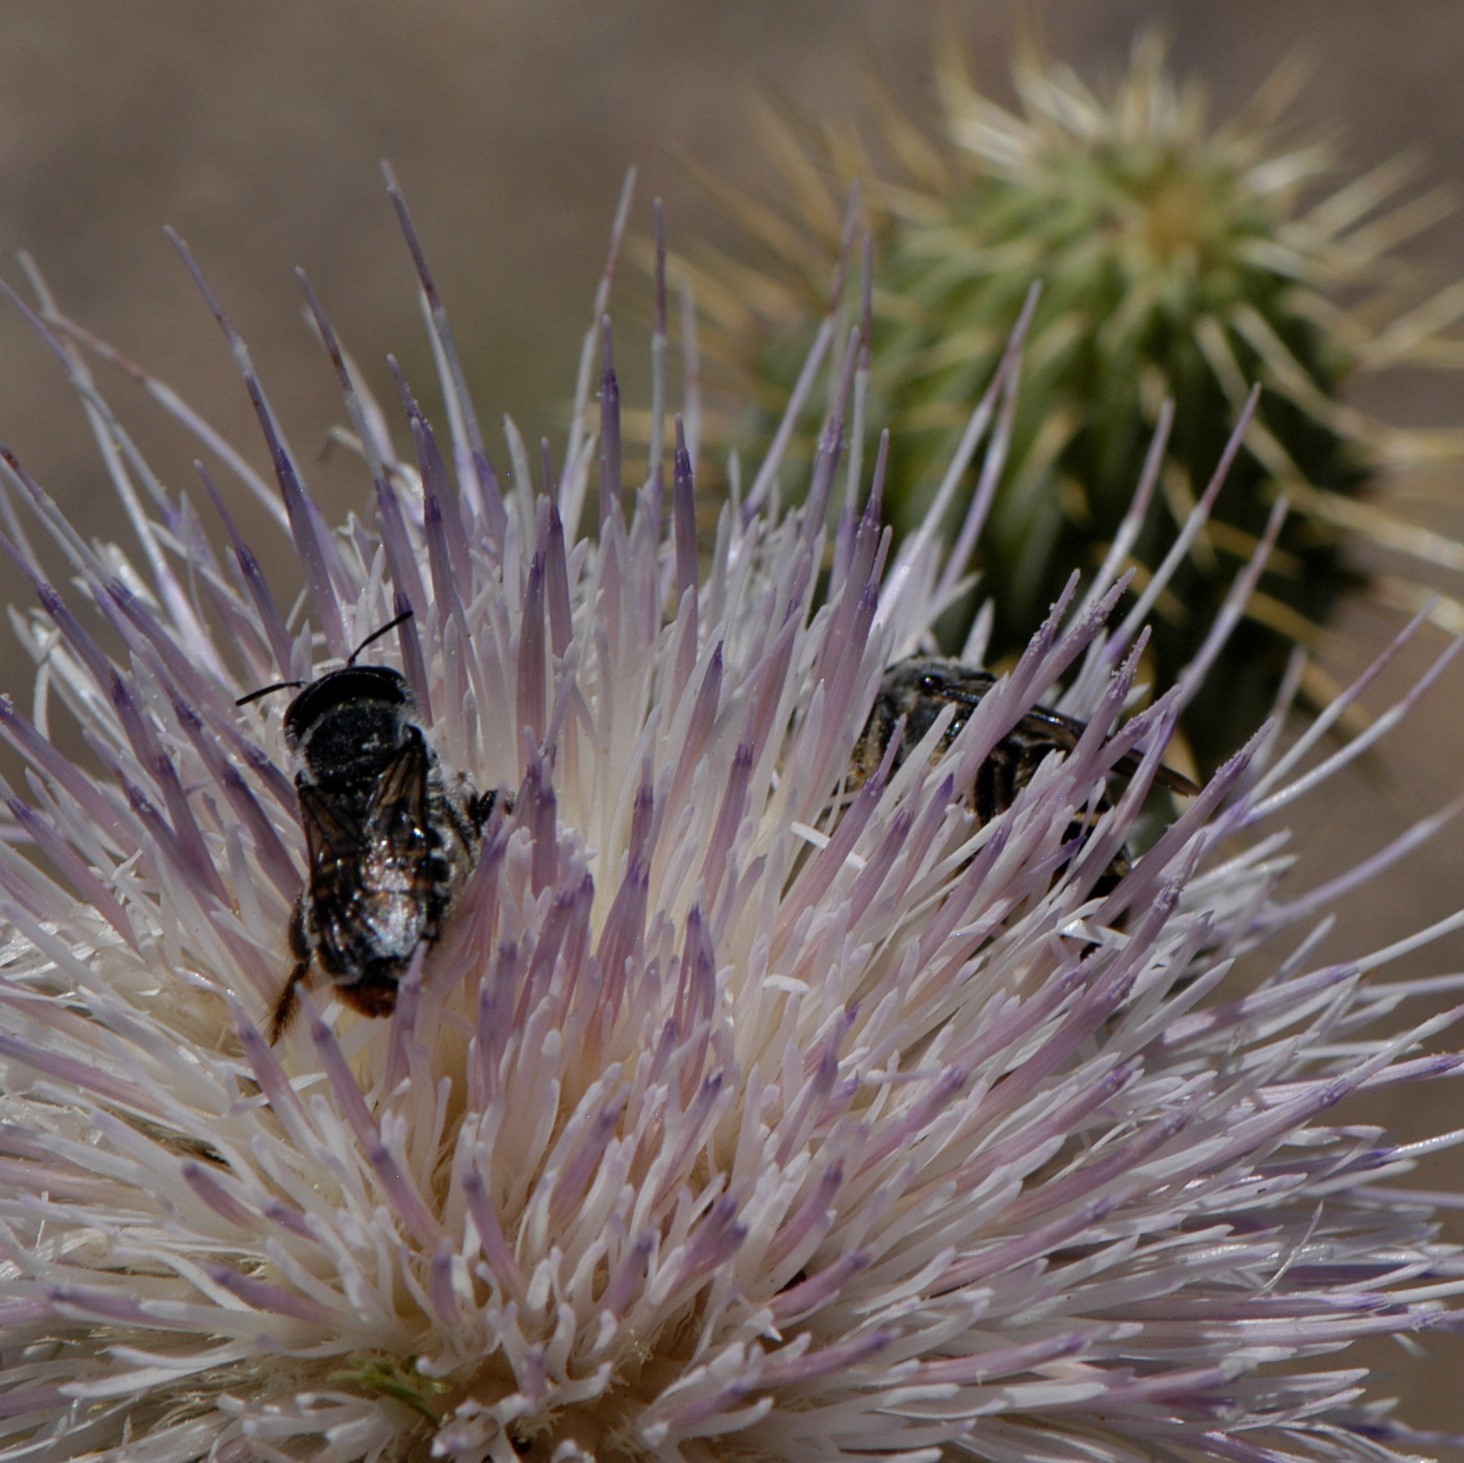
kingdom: Animalia
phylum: Arthropoda
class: Insecta
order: Hymenoptera
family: Megachilidae
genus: Lithurgopsis
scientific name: Lithurgopsis apicalis
